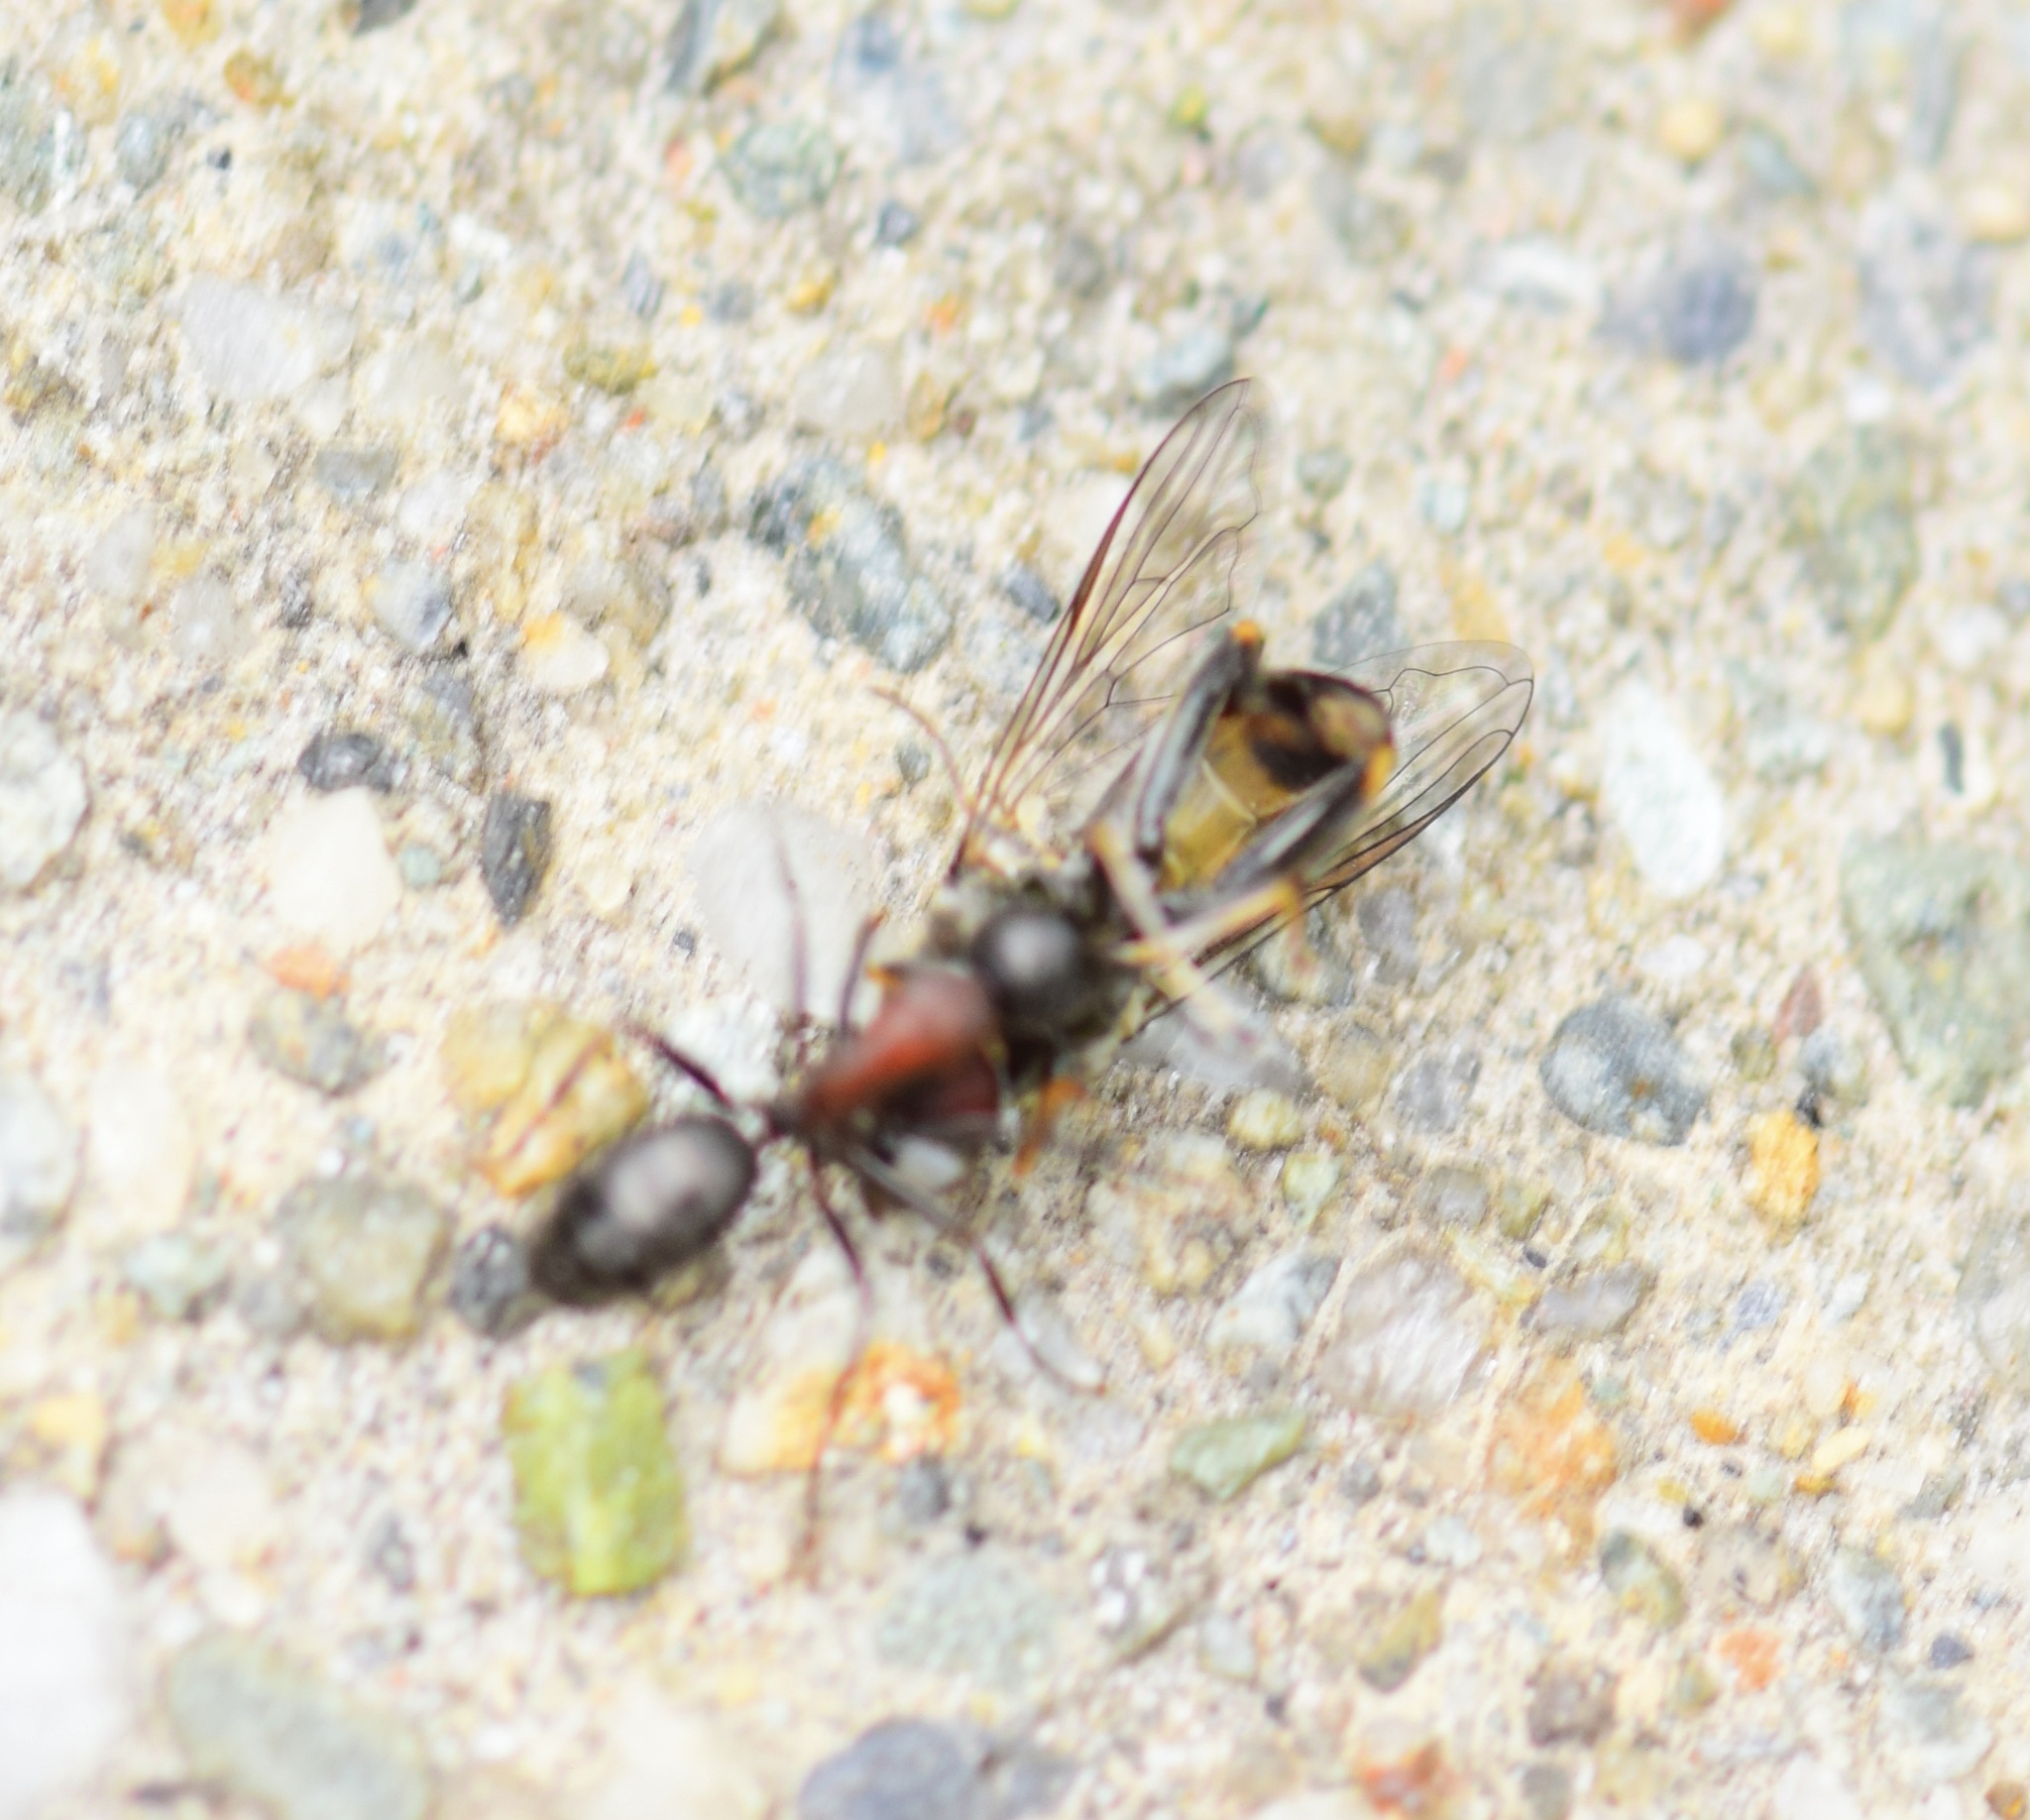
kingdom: Animalia
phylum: Arthropoda
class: Insecta
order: Hymenoptera
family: Formicidae
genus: Camponotus
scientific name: Camponotus novaeboracensis
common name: New york carpenter ant
